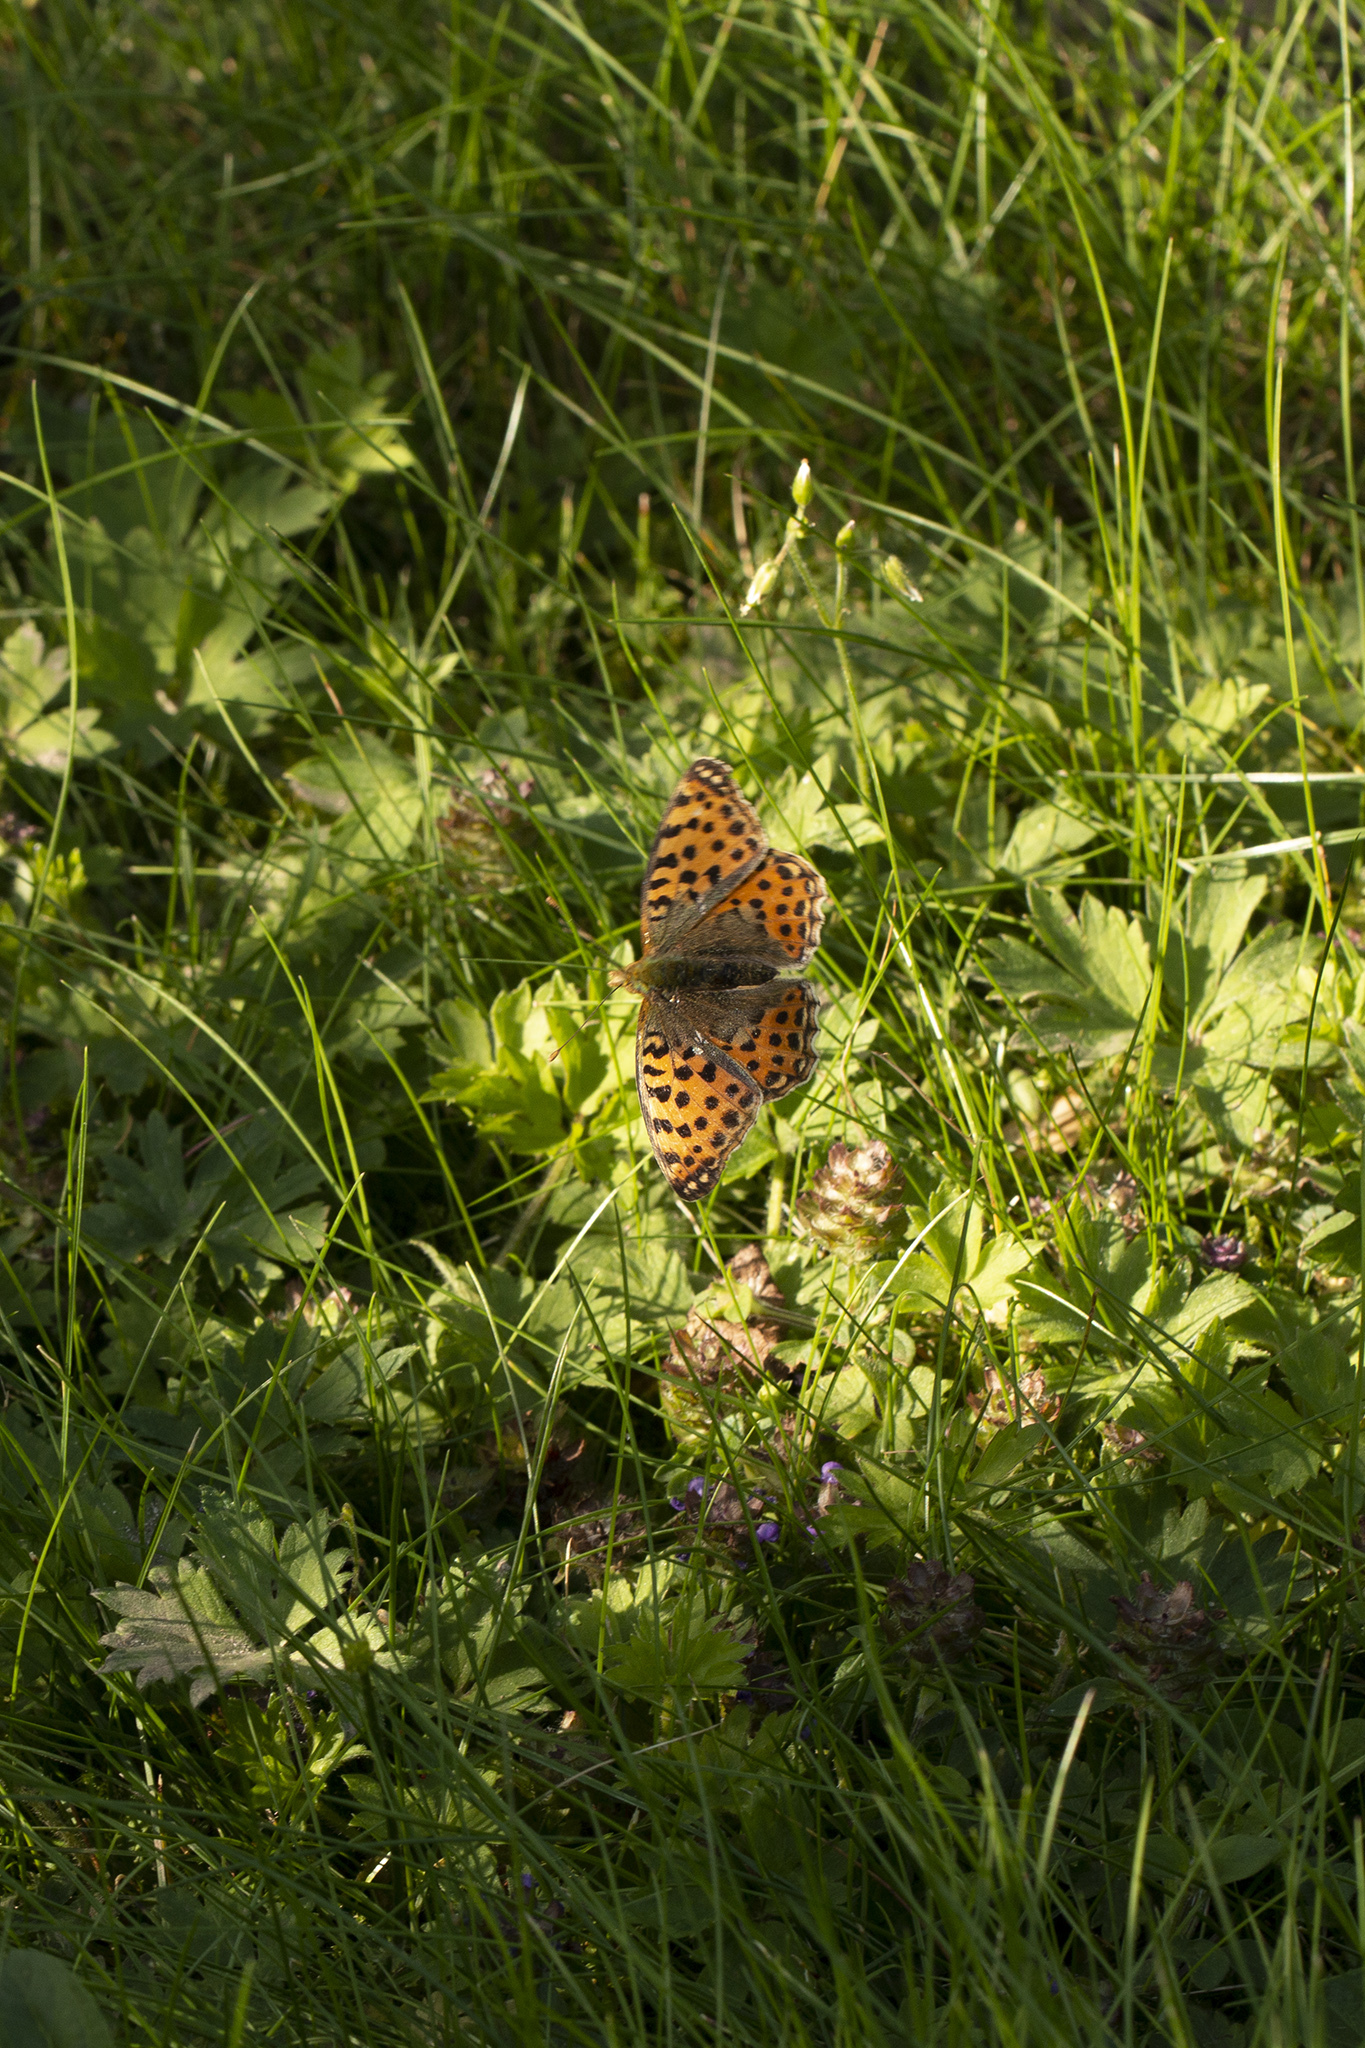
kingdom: Animalia
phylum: Arthropoda
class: Insecta
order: Lepidoptera
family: Nymphalidae
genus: Issoria
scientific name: Issoria lathonia
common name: Queen of spain fritillary
